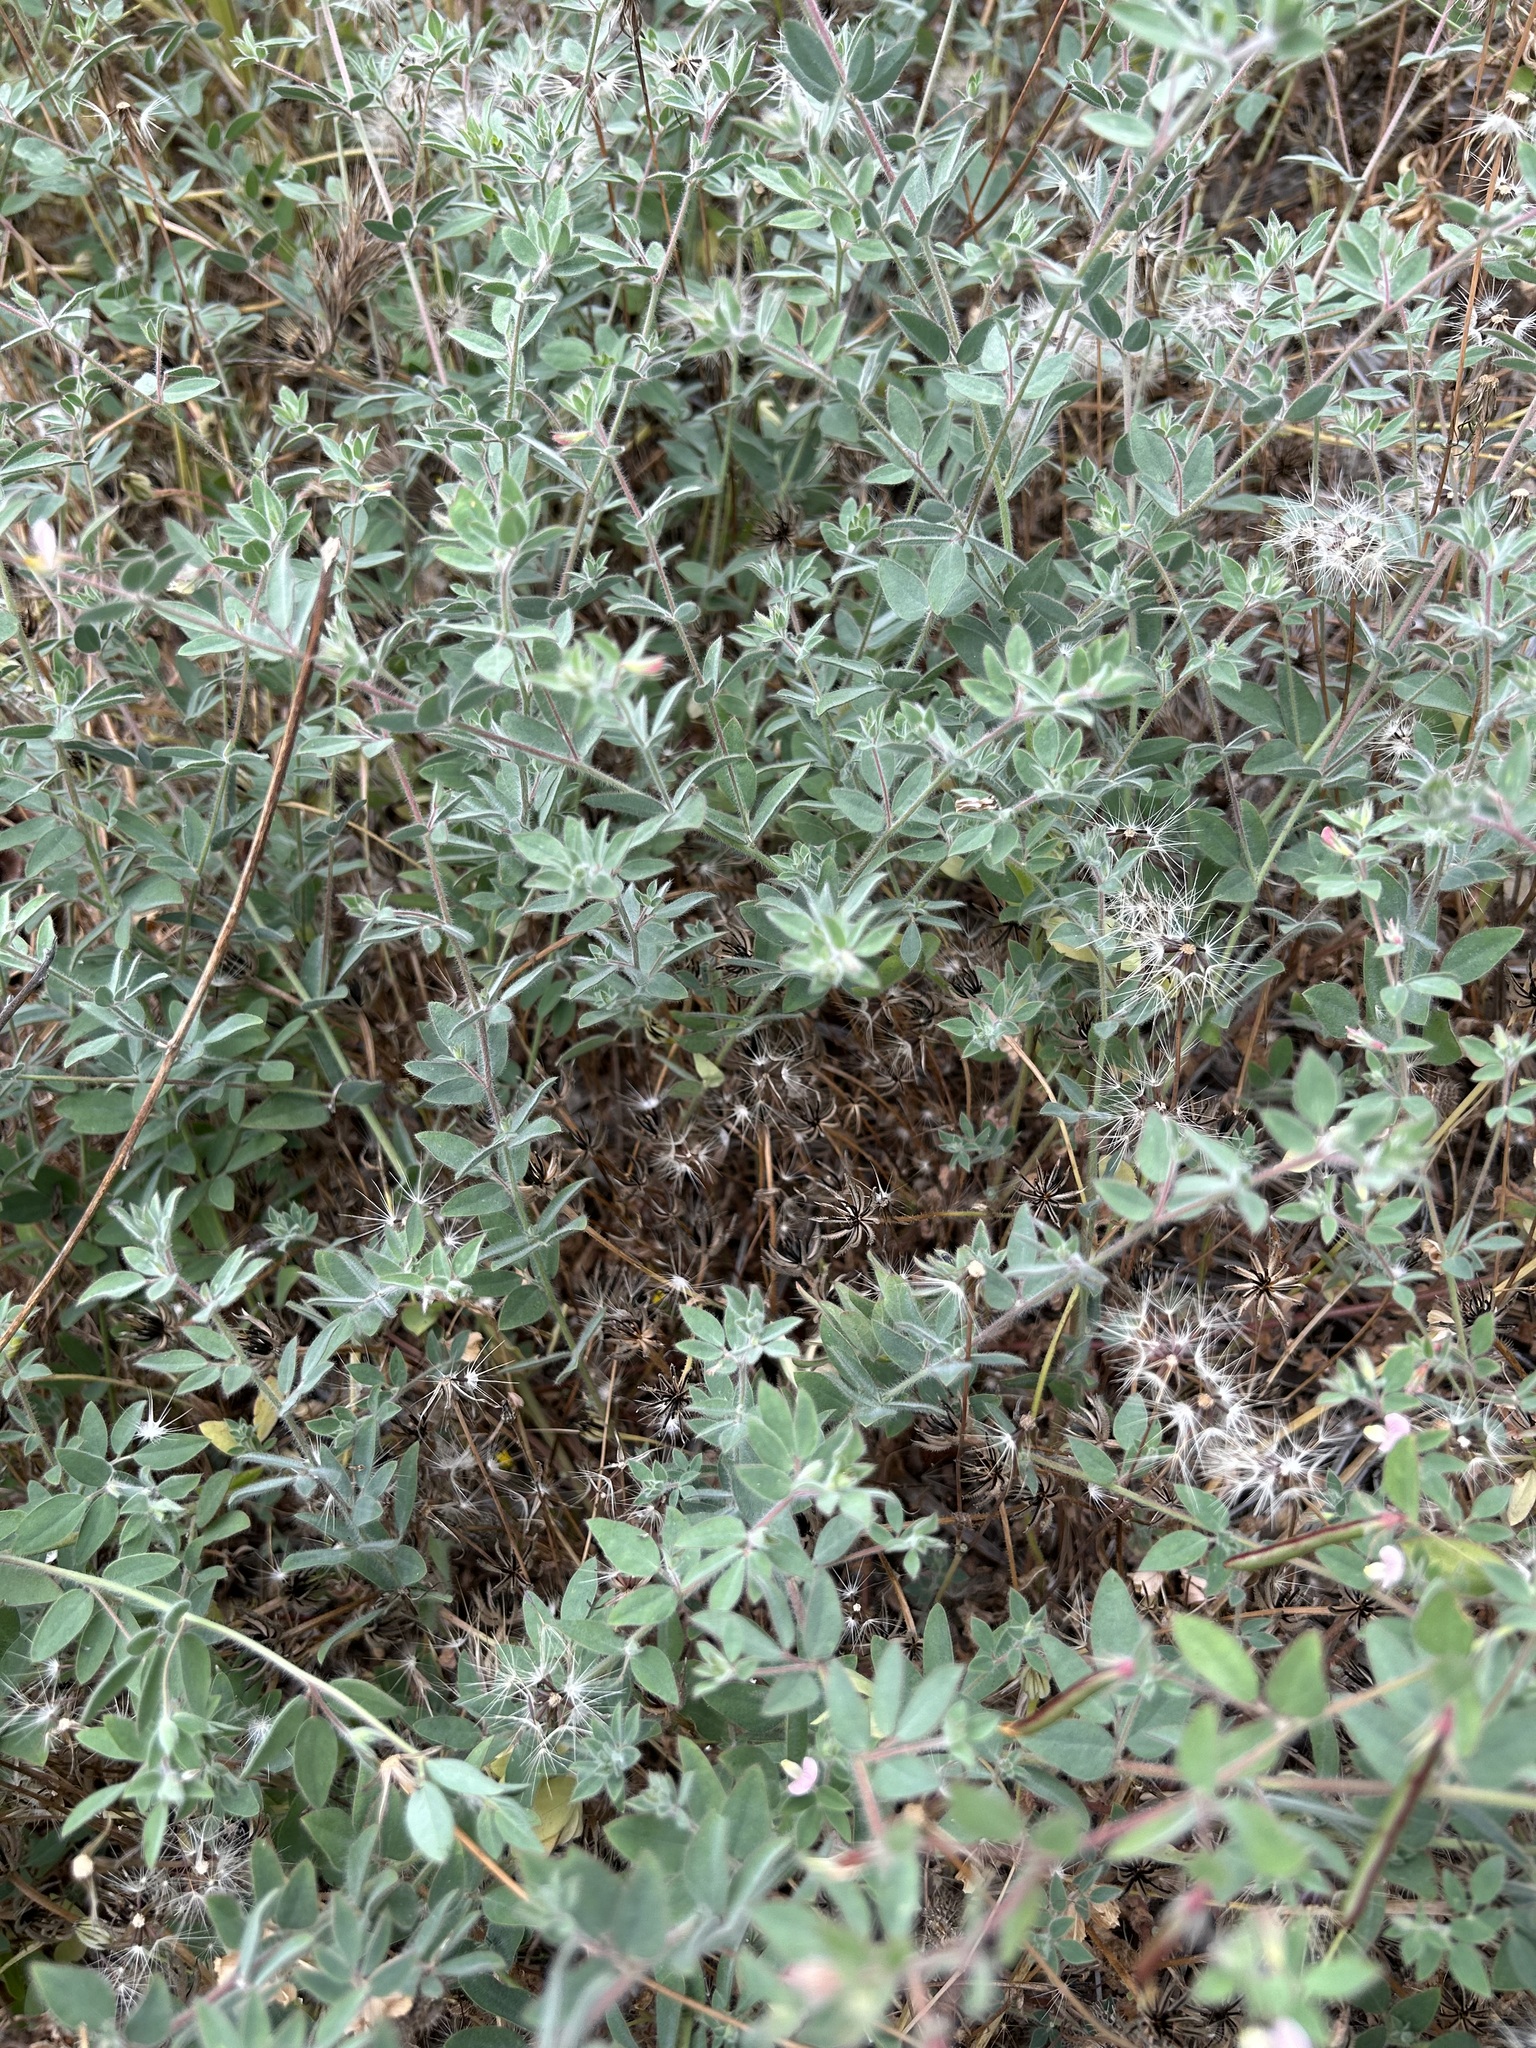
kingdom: Plantae
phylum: Tracheophyta
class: Magnoliopsida
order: Fabales
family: Fabaceae
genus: Acmispon
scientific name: Acmispon americanus
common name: American bird's-foot trefoil
